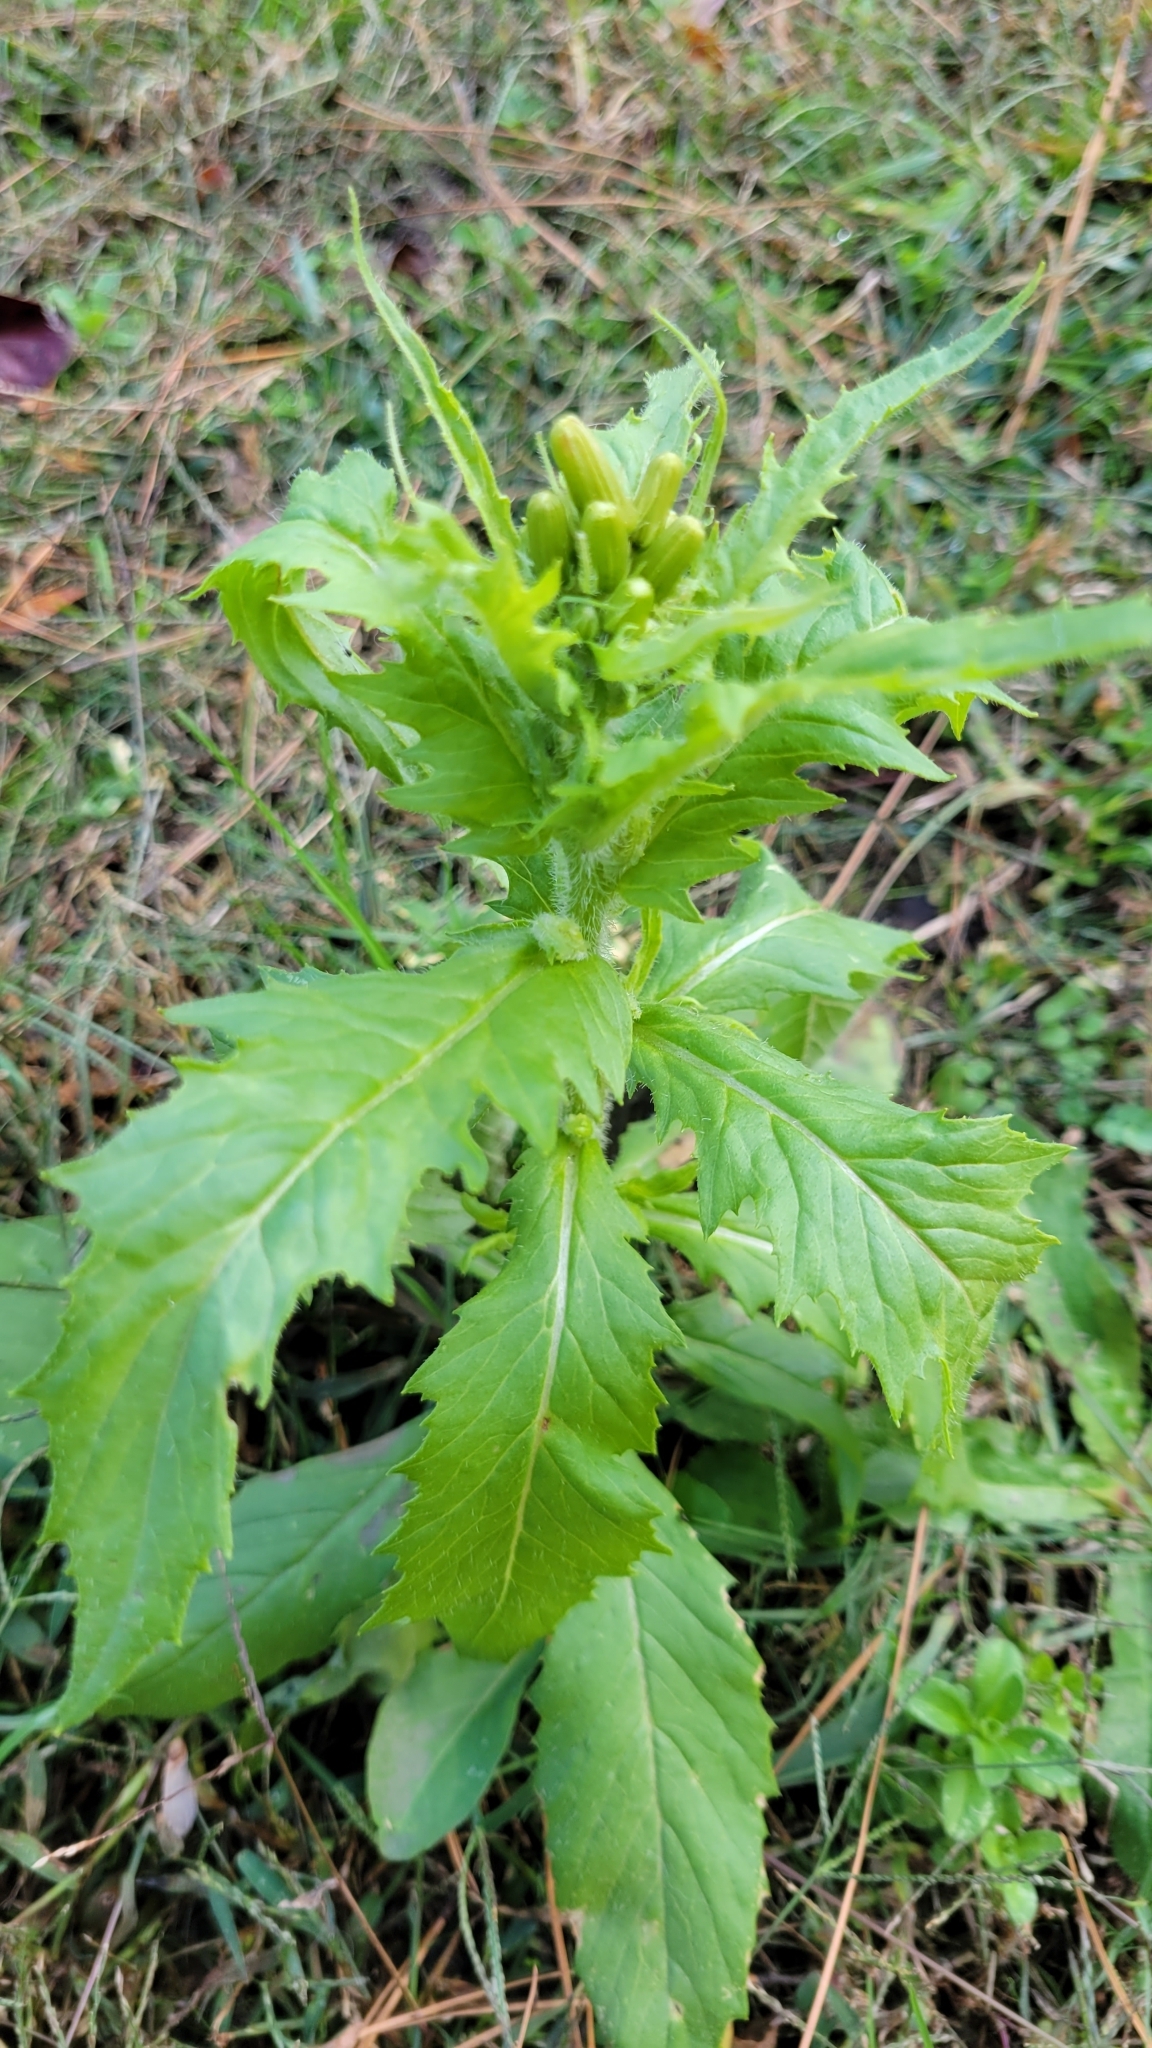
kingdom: Plantae
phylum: Tracheophyta
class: Magnoliopsida
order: Asterales
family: Asteraceae
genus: Erechtites
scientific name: Erechtites hieraciifolius
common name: American burnweed
